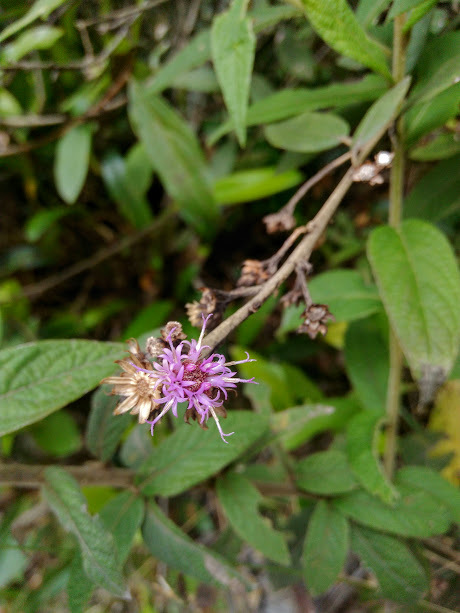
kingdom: Plantae
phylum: Tracheophyta
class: Magnoliopsida
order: Asterales
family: Asteraceae
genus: Lepidaploa
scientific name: Lepidaploa karstenii
